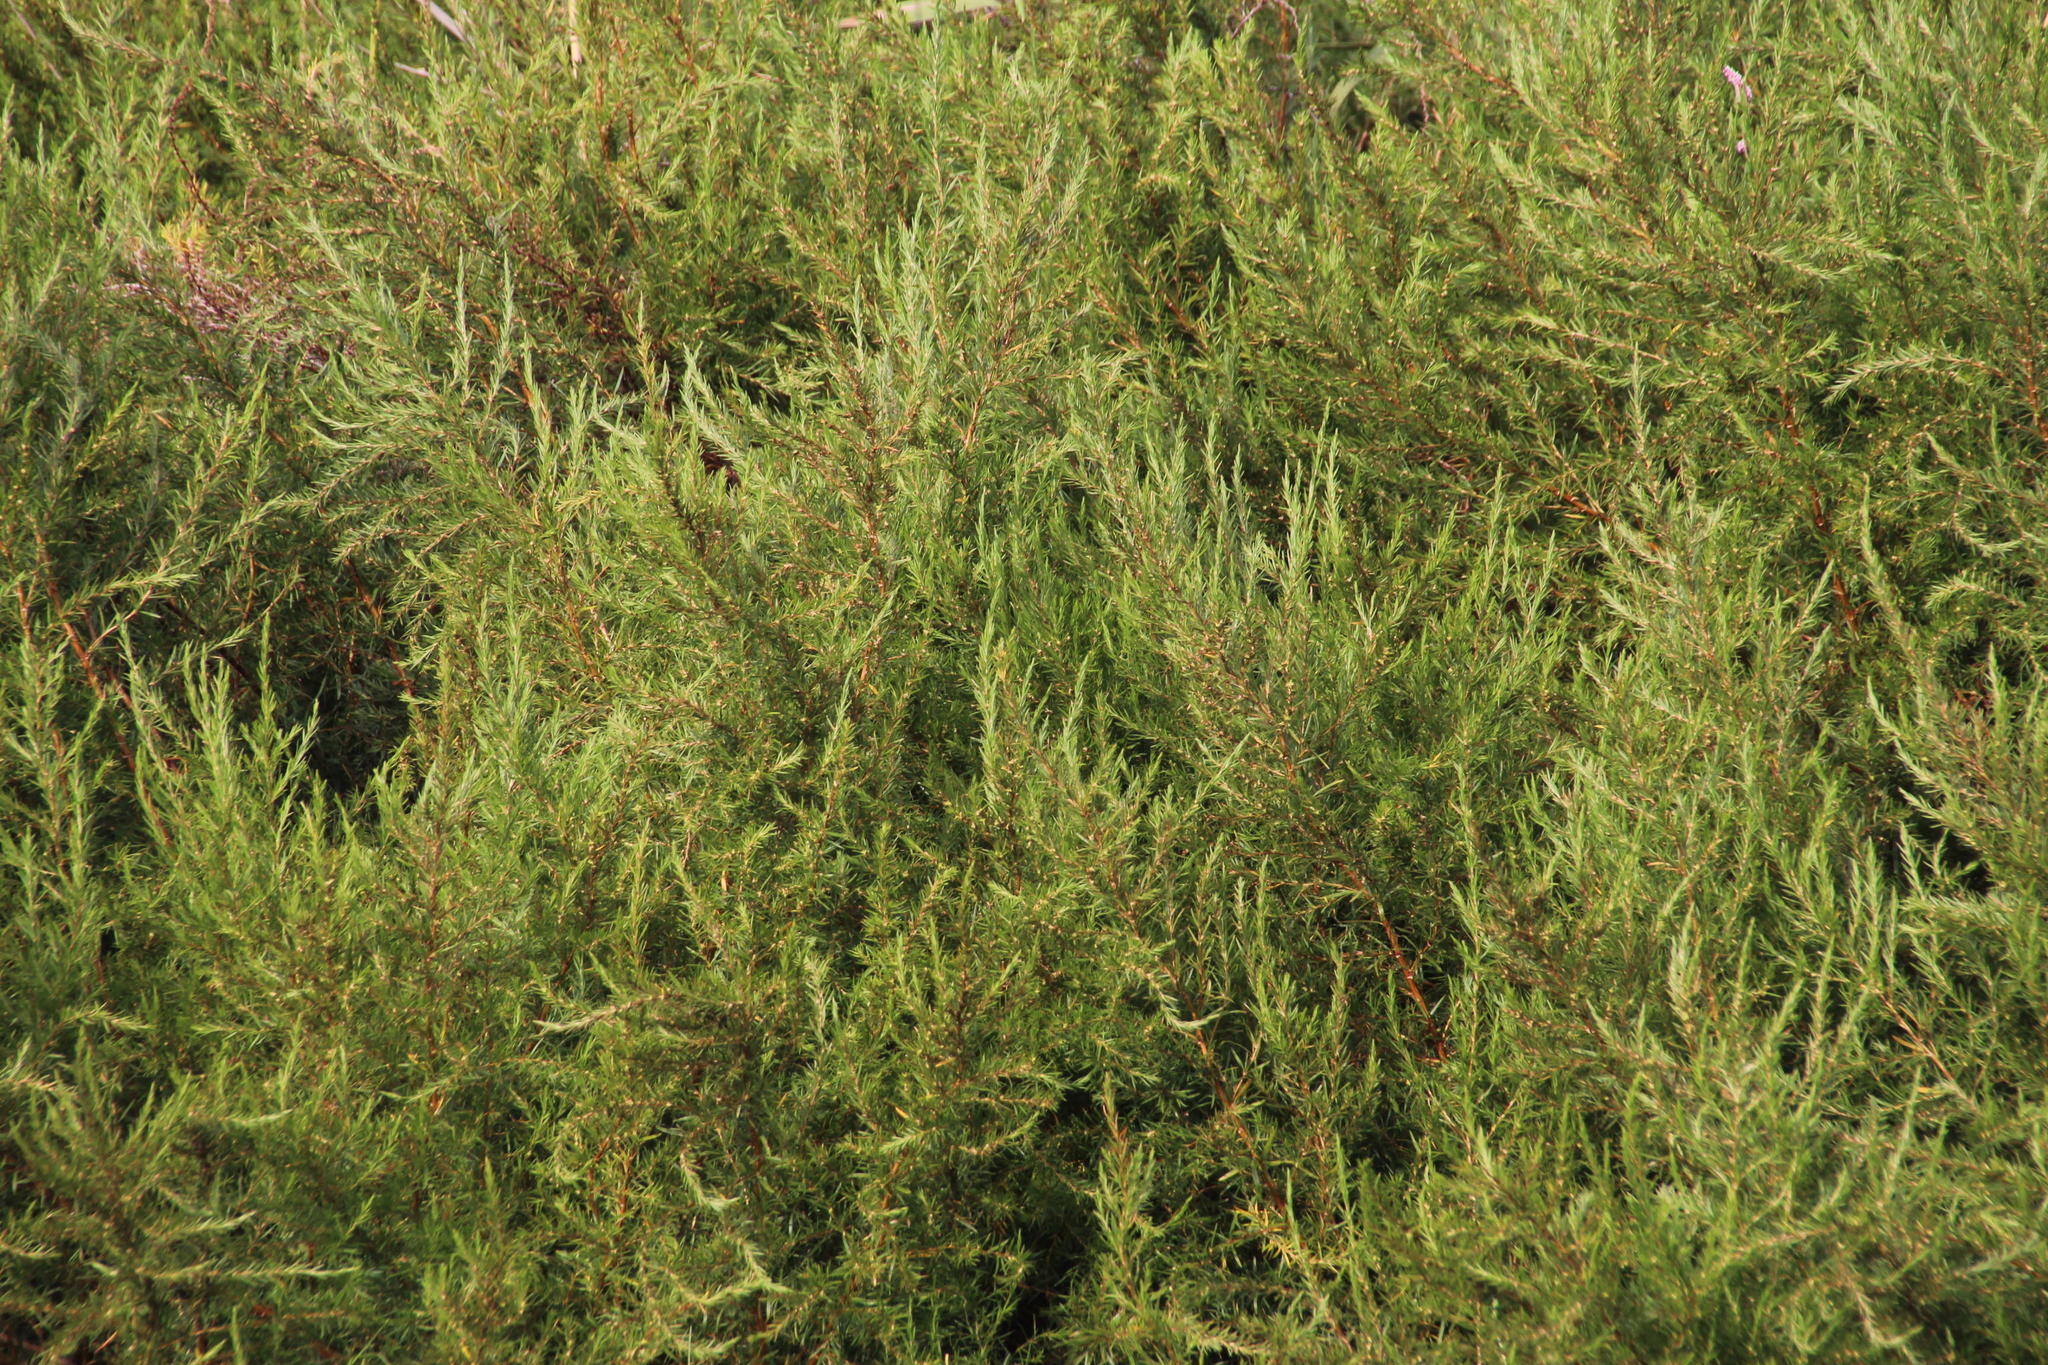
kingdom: Plantae
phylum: Tracheophyta
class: Magnoliopsida
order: Rosales
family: Rosaceae
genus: Cliffortia
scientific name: Cliffortia strobilifera
